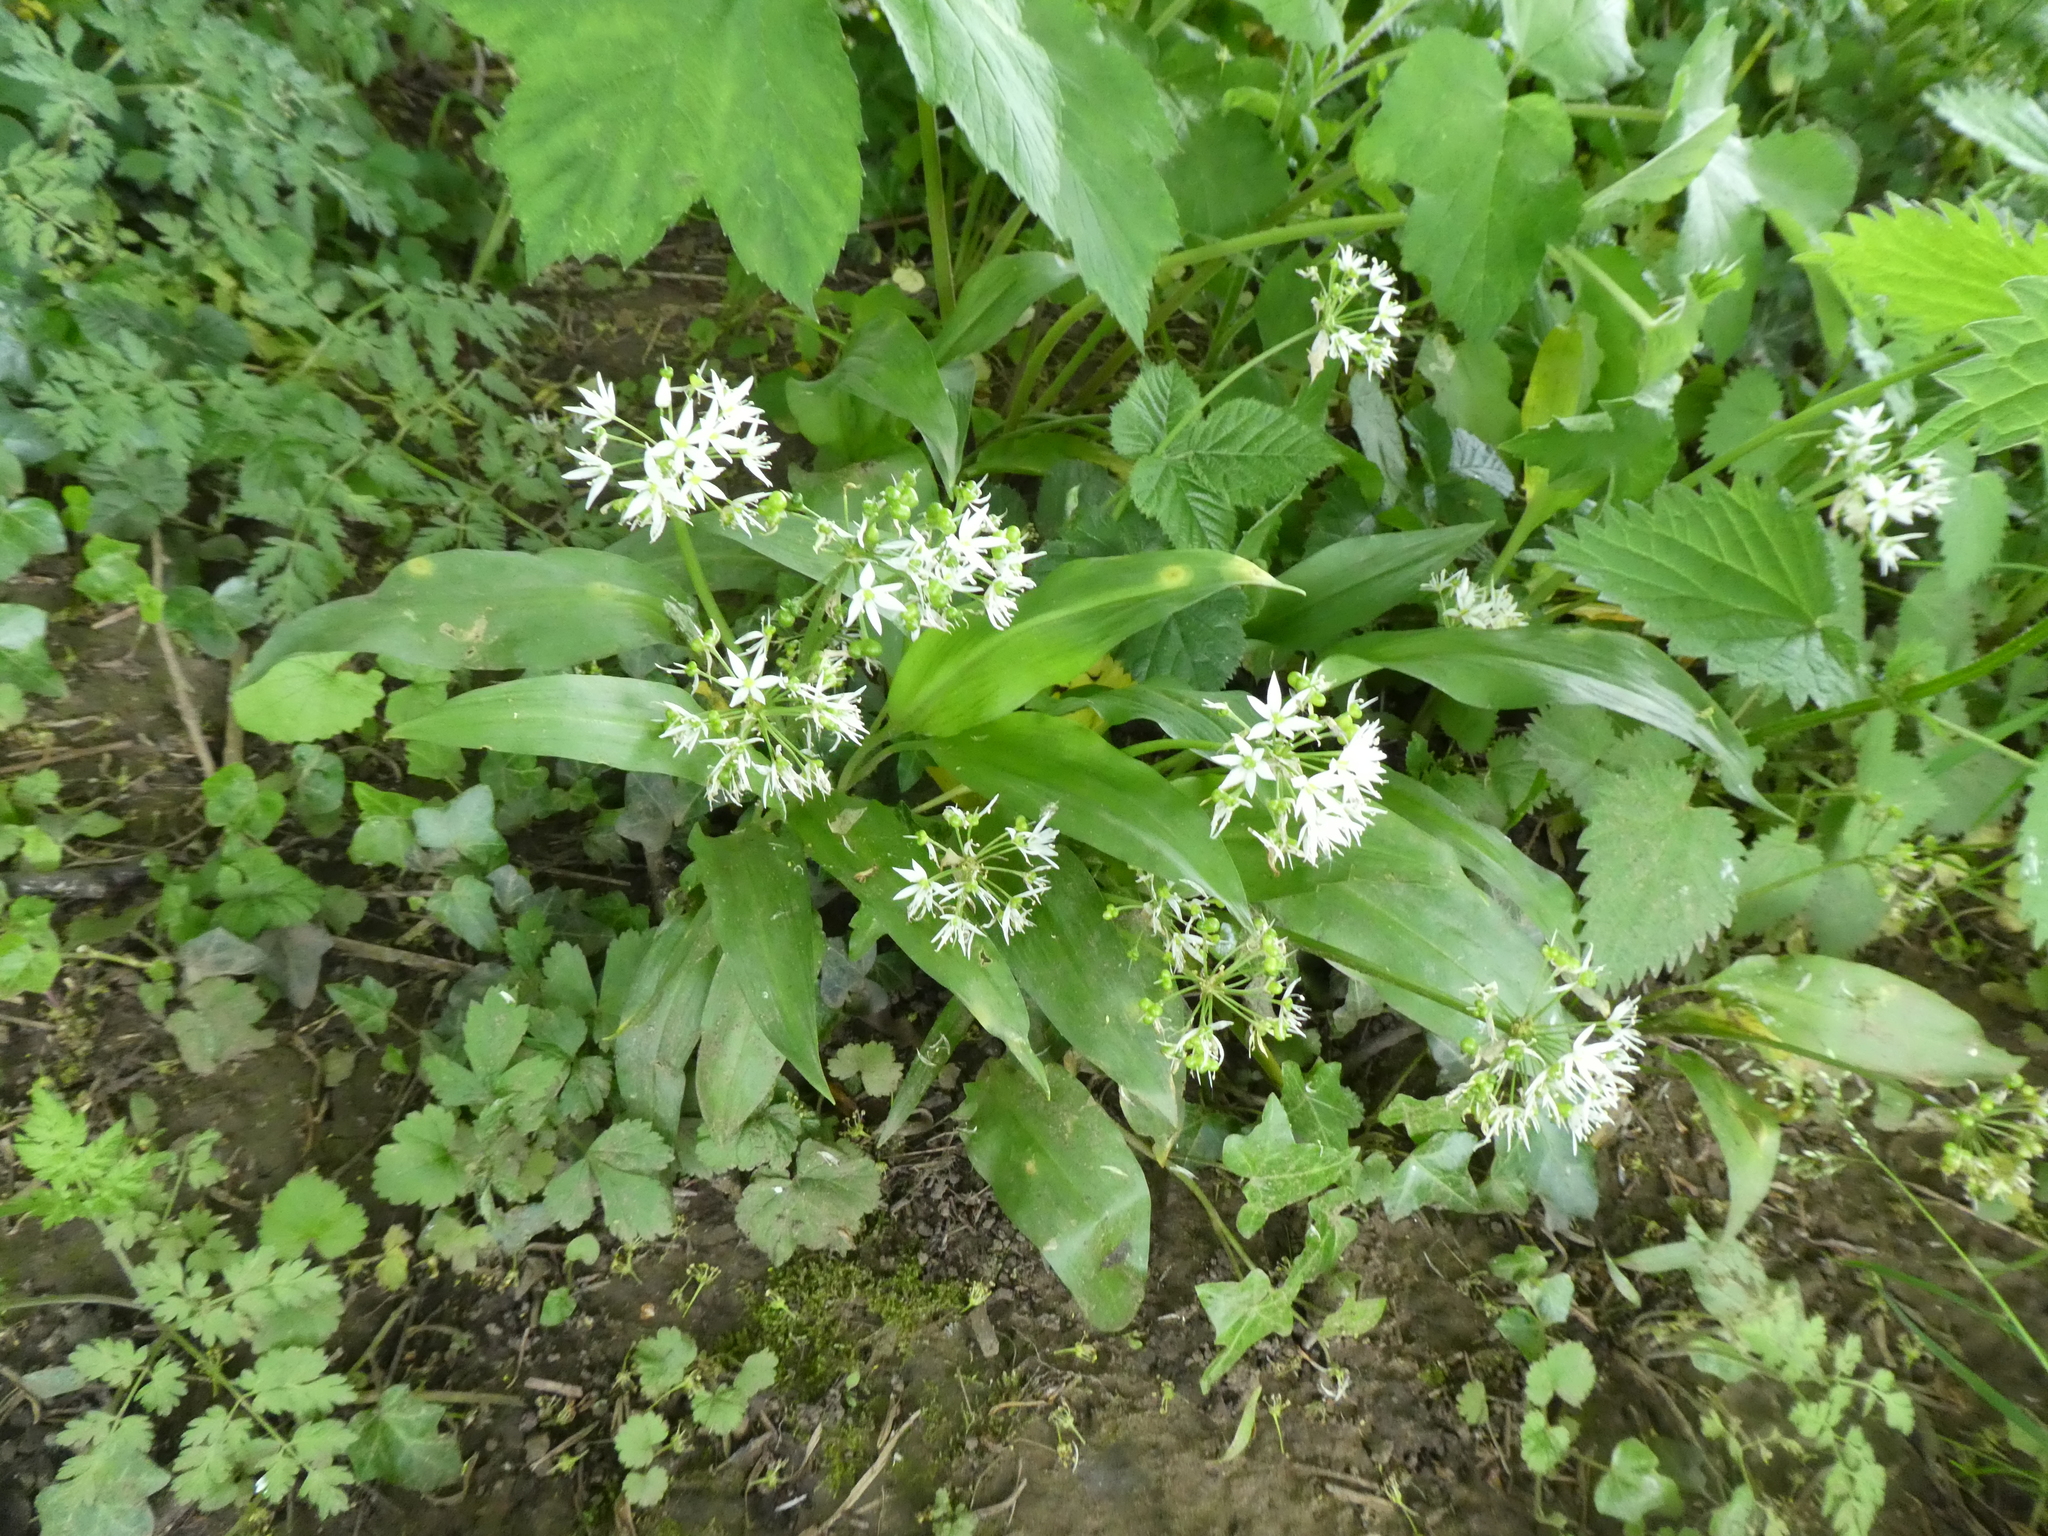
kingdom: Plantae
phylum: Tracheophyta
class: Liliopsida
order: Asparagales
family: Amaryllidaceae
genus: Allium
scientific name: Allium ursinum
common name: Ramsons
